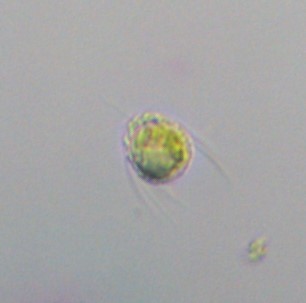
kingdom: Chromista
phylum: Ochrophyta
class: Chrysophyceae
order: Synurales
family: Mallomonadaceae
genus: Mallomonas
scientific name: Mallomonas
